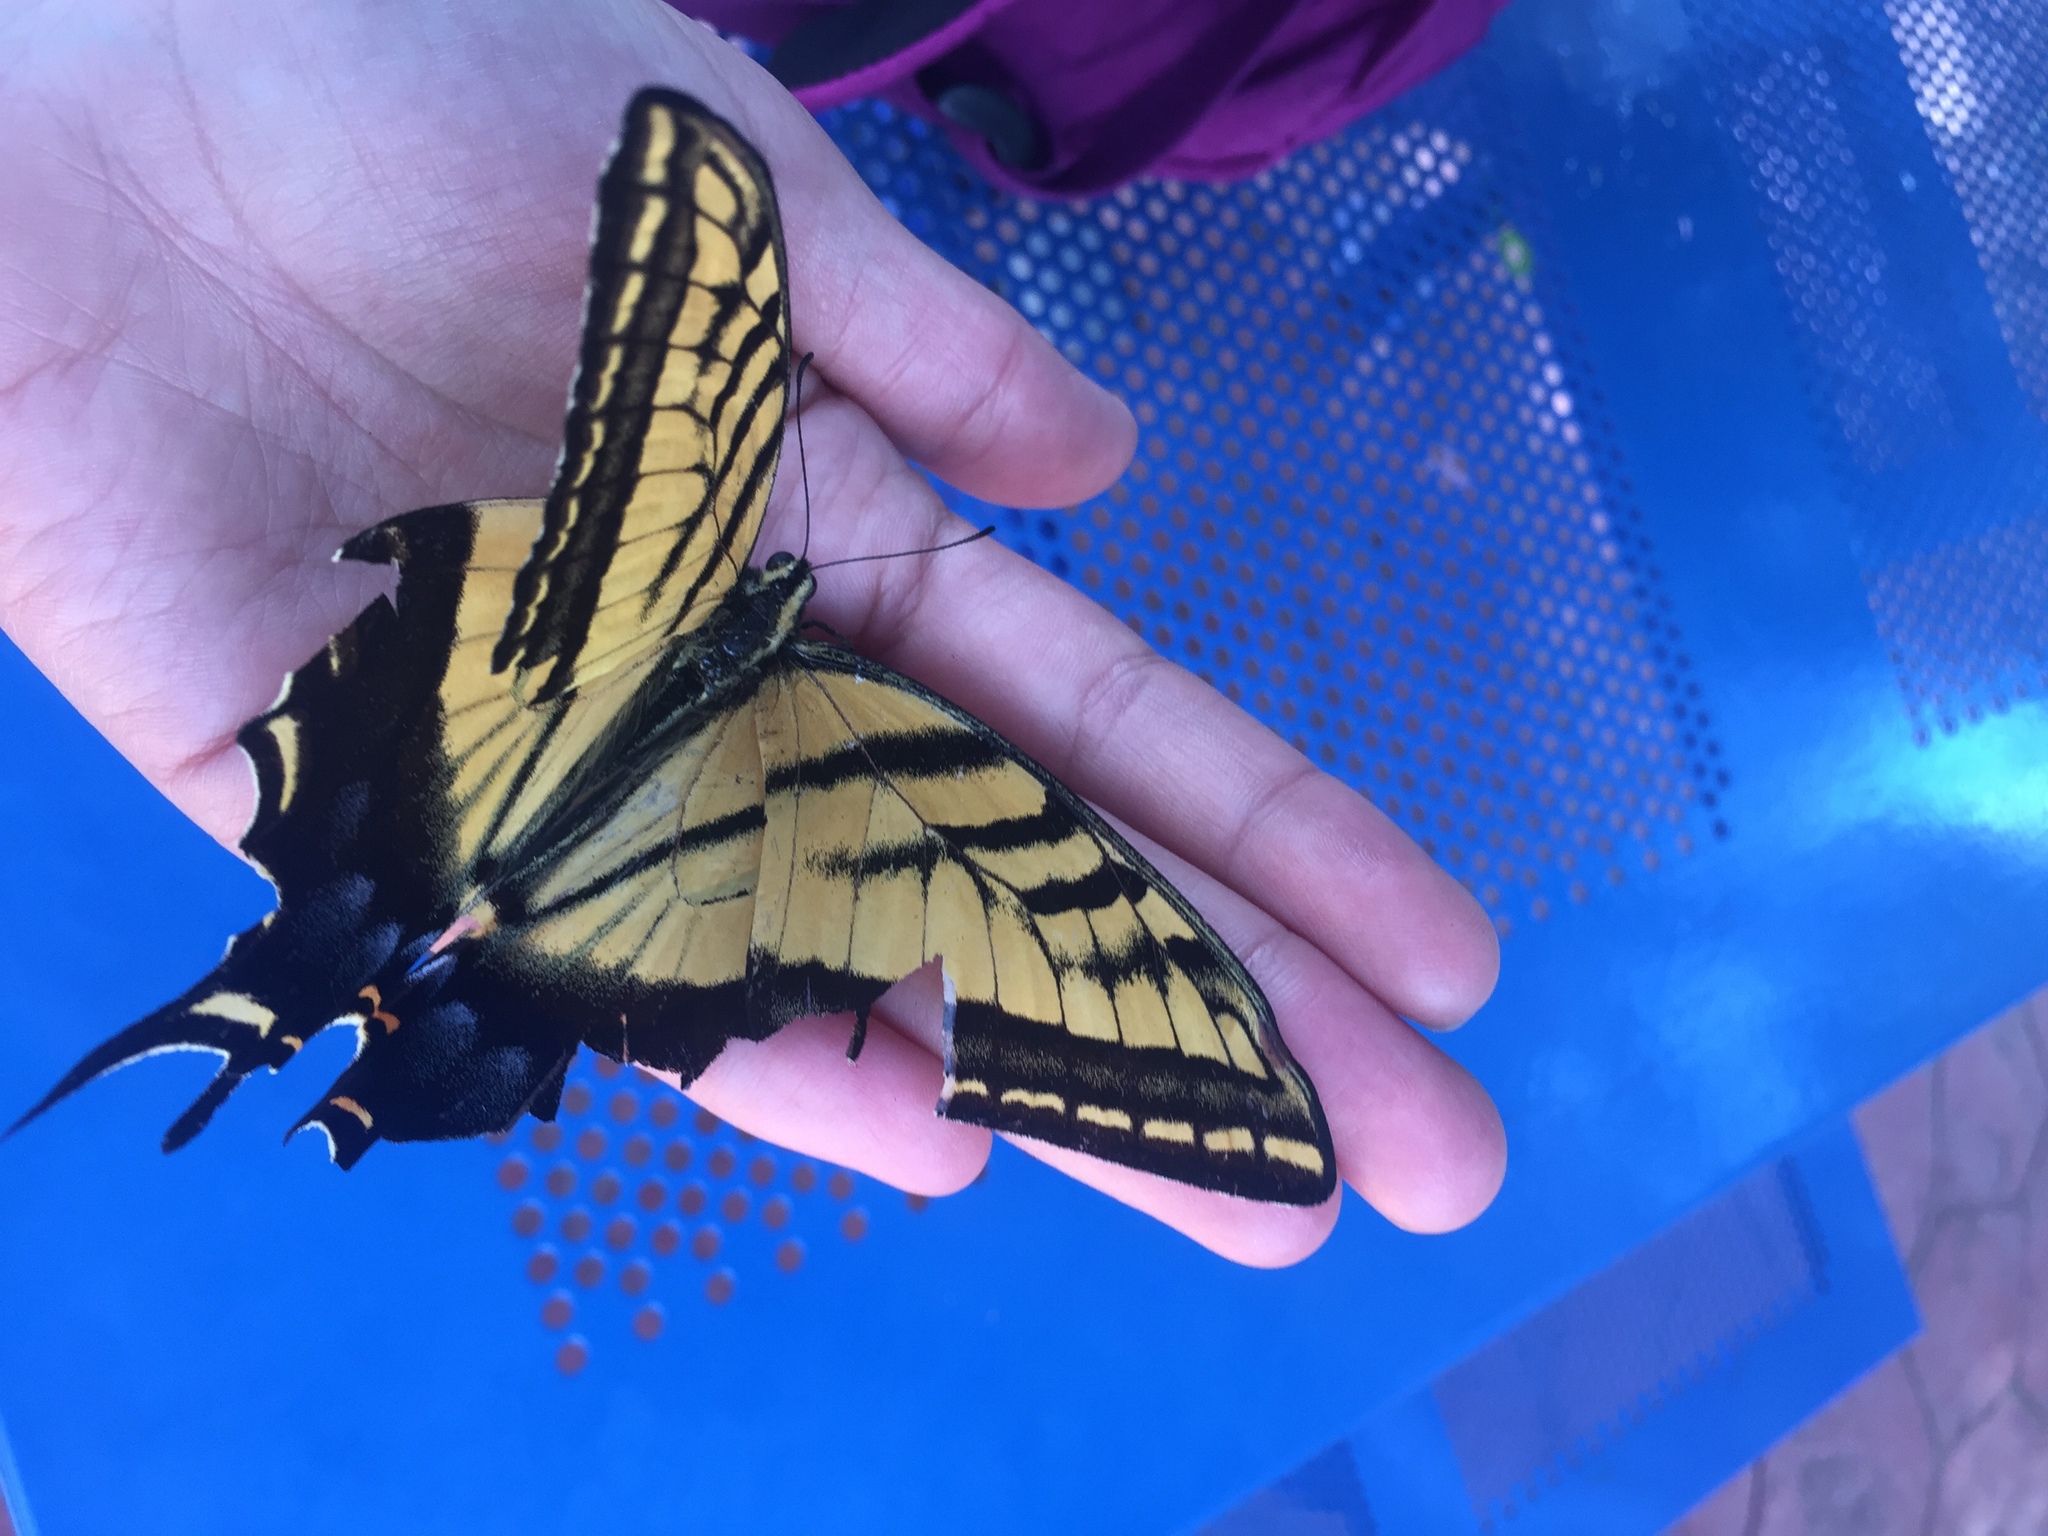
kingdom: Animalia
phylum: Arthropoda
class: Insecta
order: Lepidoptera
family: Papilionidae
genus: Papilio
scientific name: Papilio multicaudata
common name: Two-tailed tiger swallowtail
